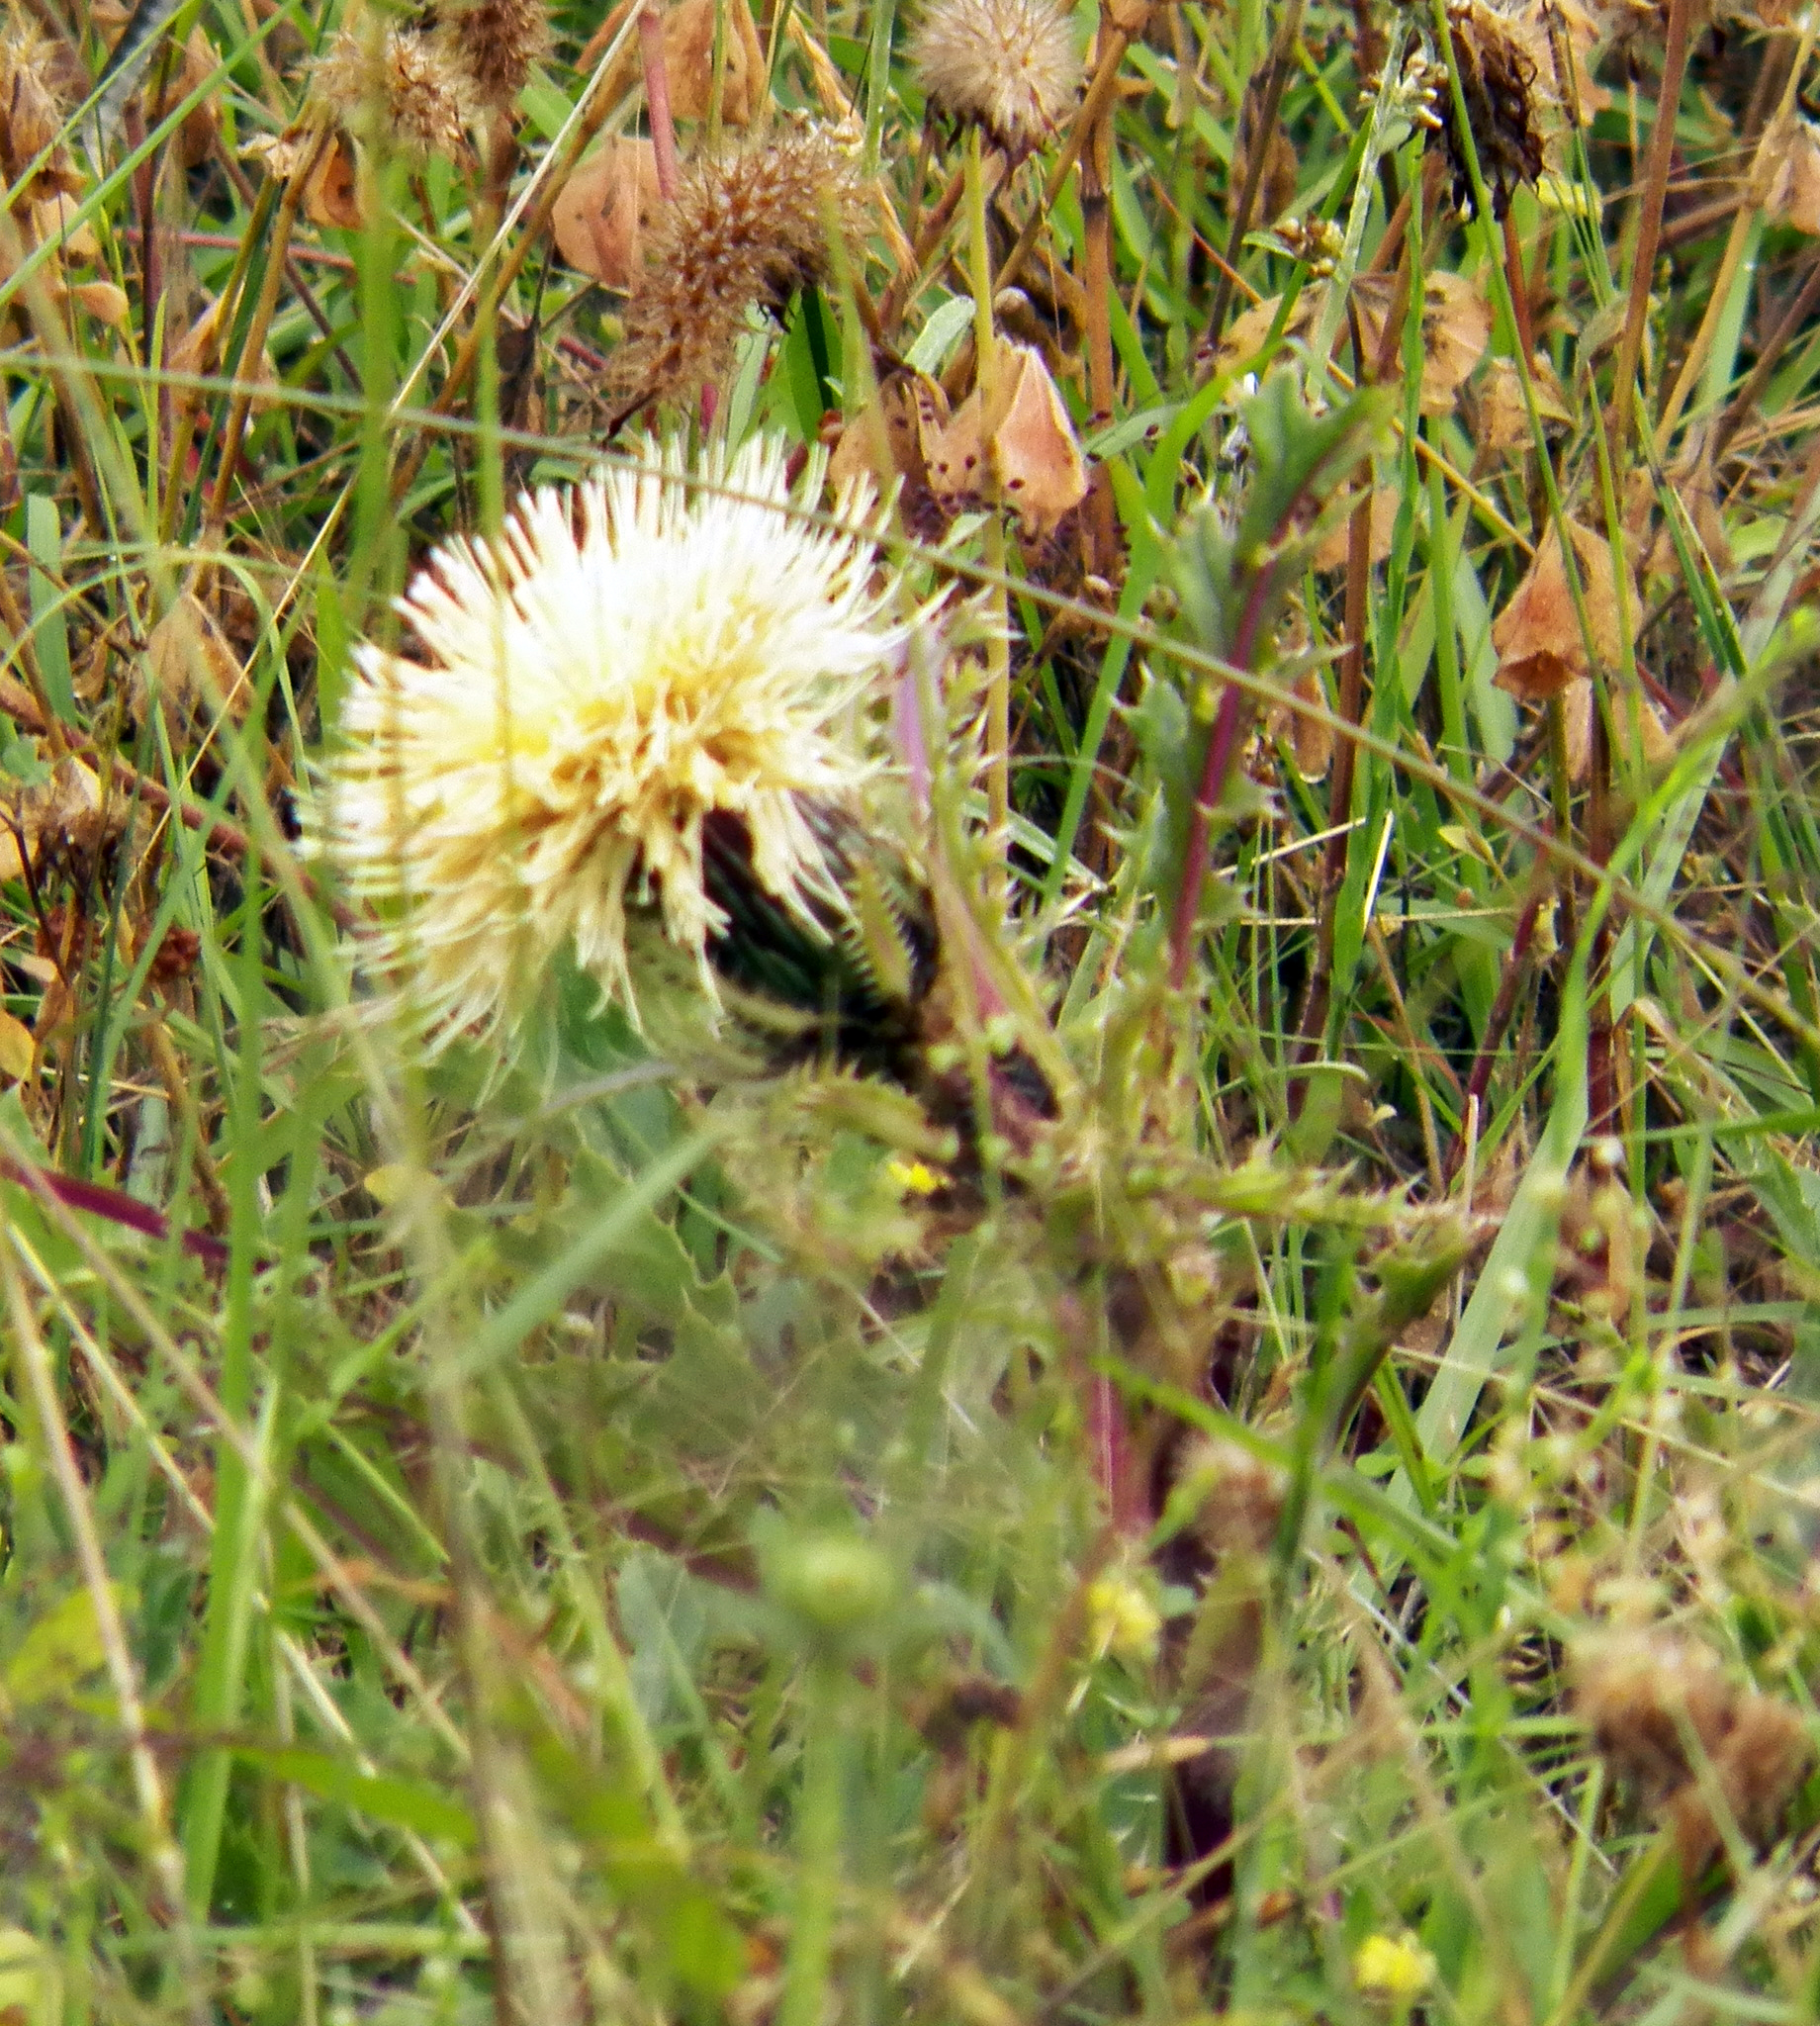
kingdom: Plantae
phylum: Tracheophyta
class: Magnoliopsida
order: Asterales
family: Asteraceae
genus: Cirsium
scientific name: Cirsium horridulum
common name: Bristly thistle
